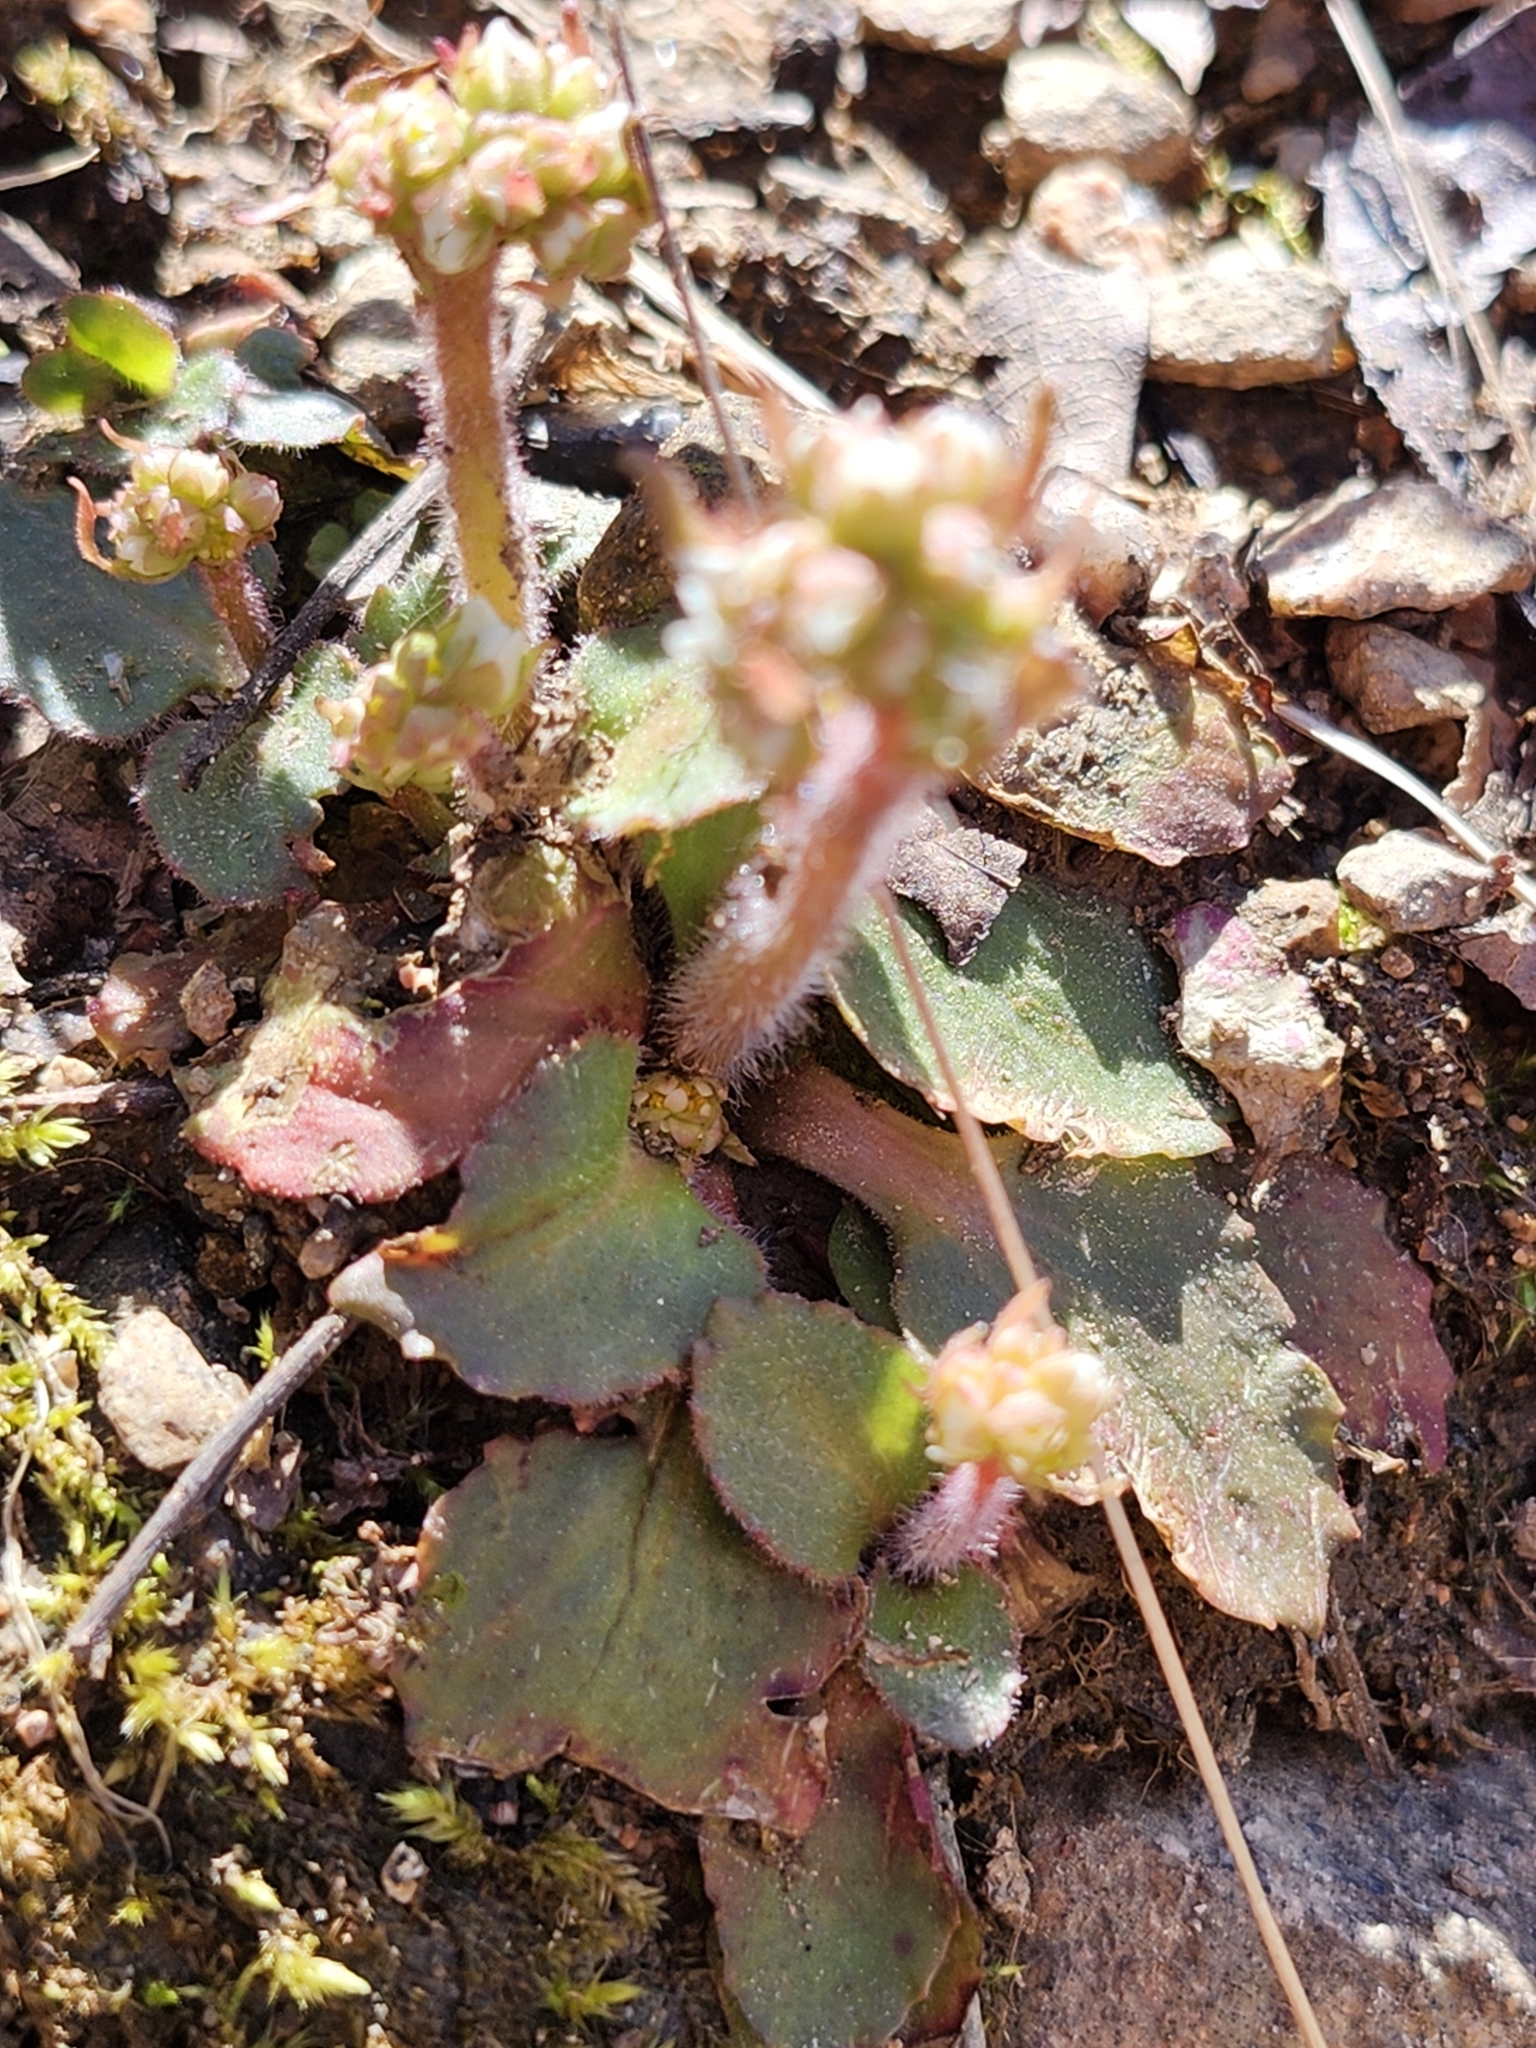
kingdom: Plantae
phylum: Tracheophyta
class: Magnoliopsida
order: Saxifragales
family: Saxifragaceae
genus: Micranthes
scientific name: Micranthes virginiensis
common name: Early saxifrage
